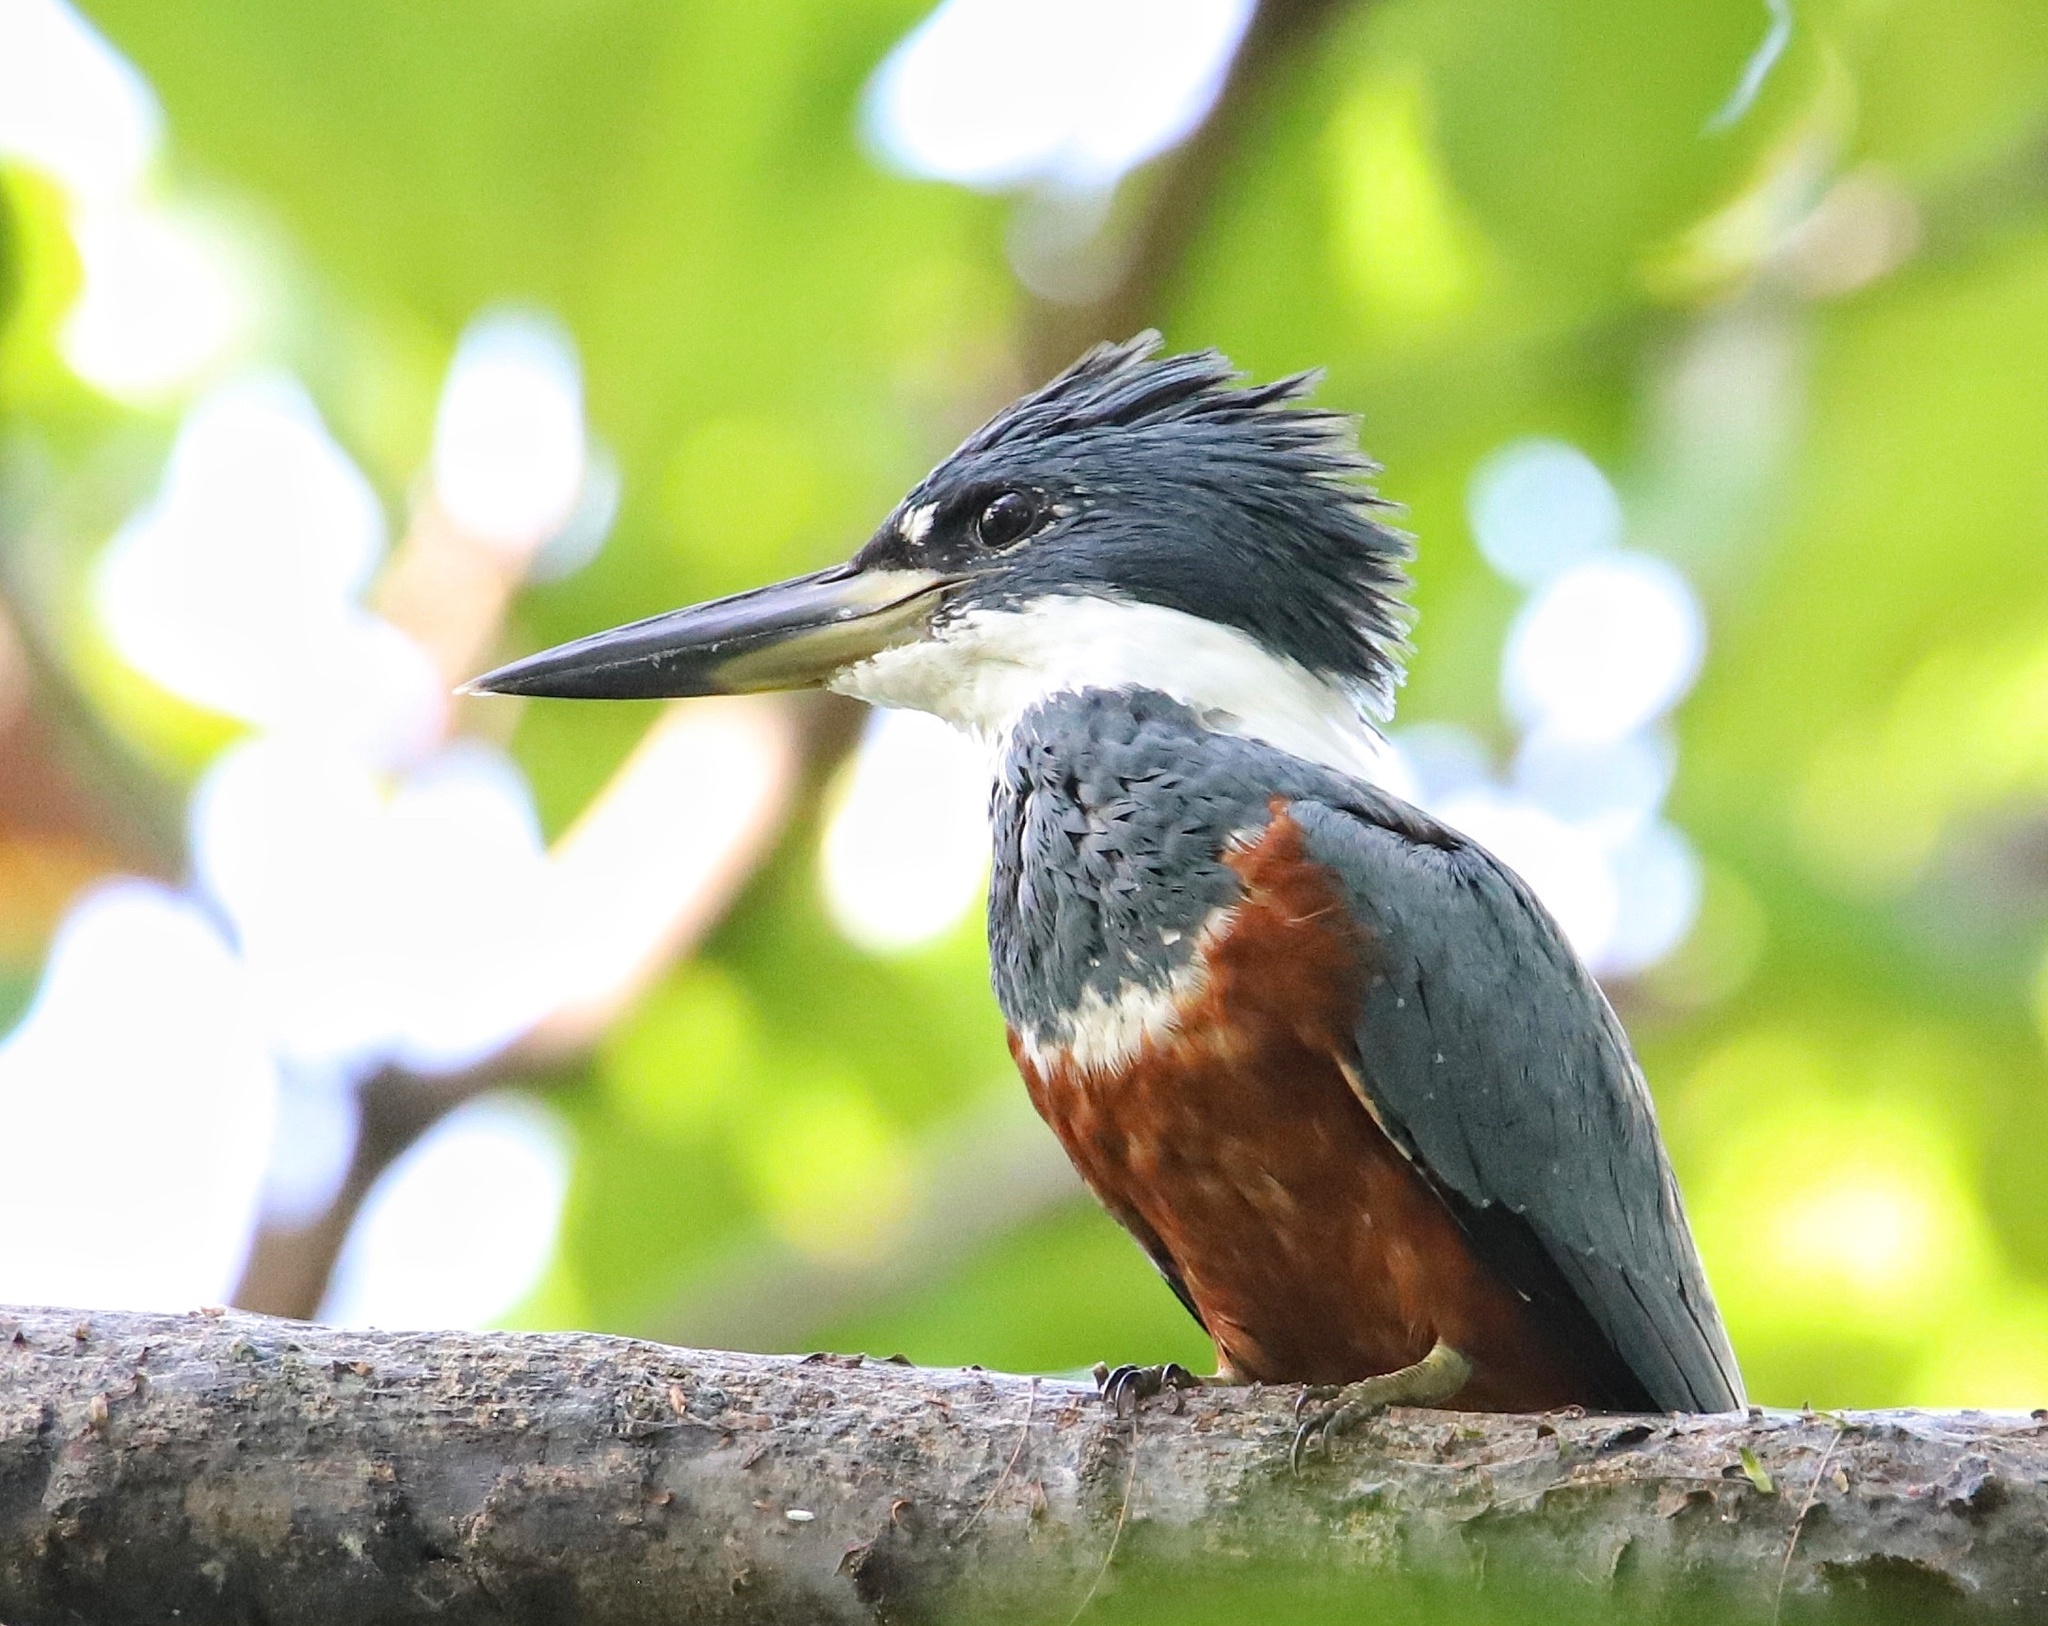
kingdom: Animalia
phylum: Chordata
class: Aves
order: Coraciiformes
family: Alcedinidae
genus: Megaceryle
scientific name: Megaceryle torquata
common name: Ringed kingfisher
